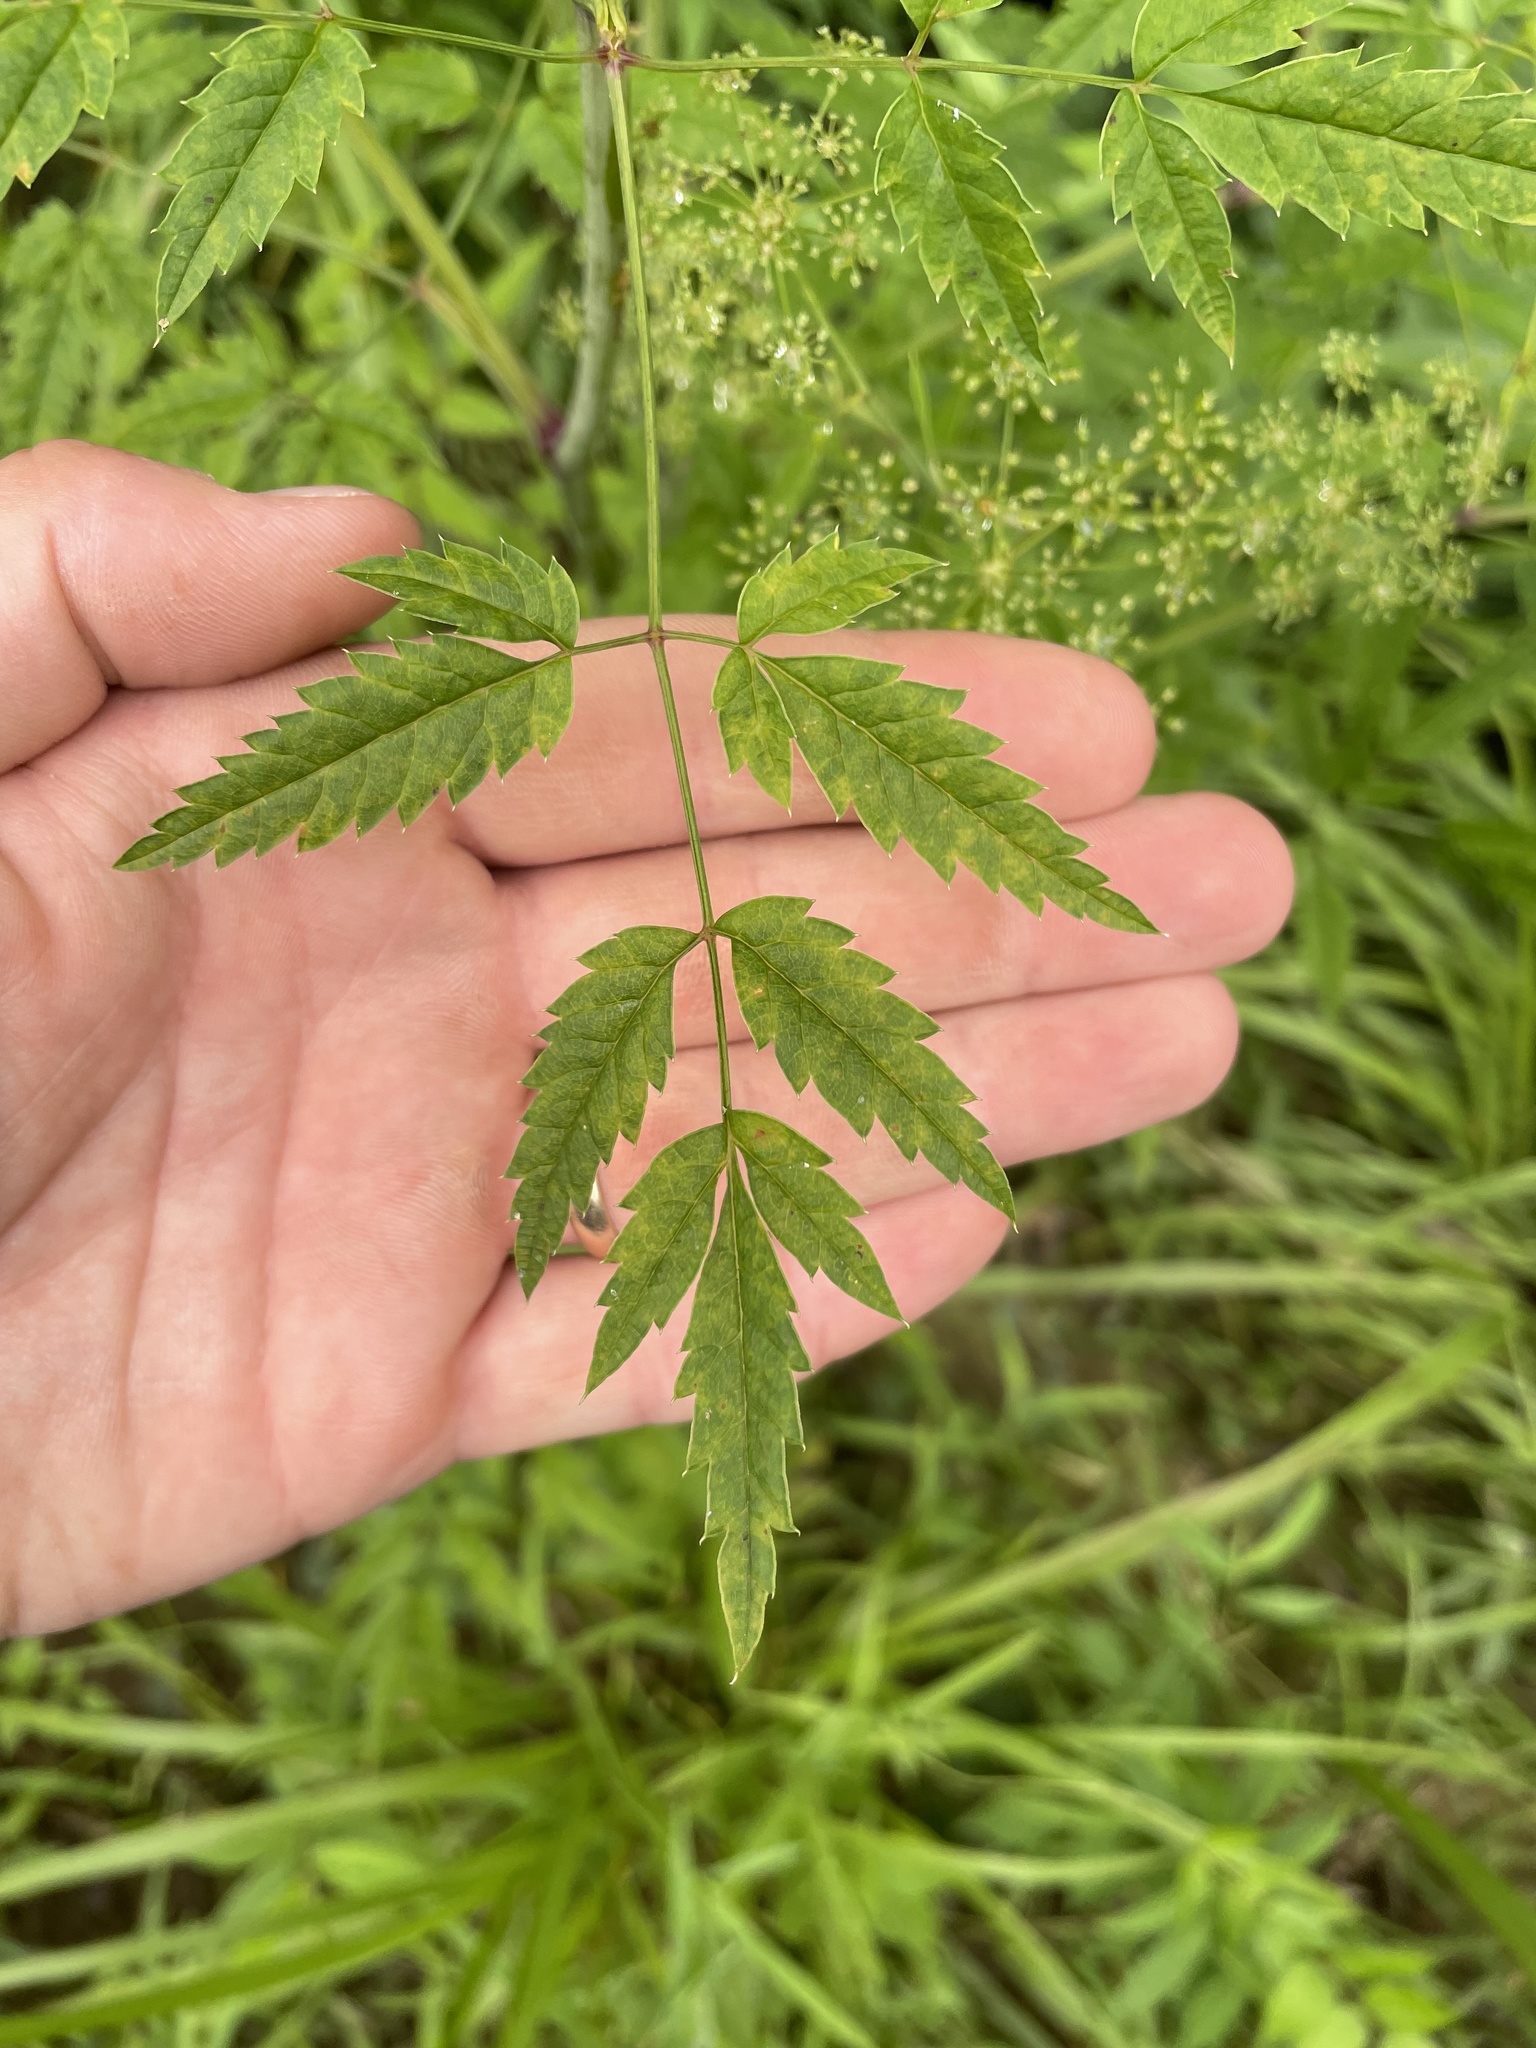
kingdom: Plantae
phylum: Tracheophyta
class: Magnoliopsida
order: Apiales
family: Apiaceae
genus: Cicuta
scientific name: Cicuta maculata
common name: Spotted cowbane
